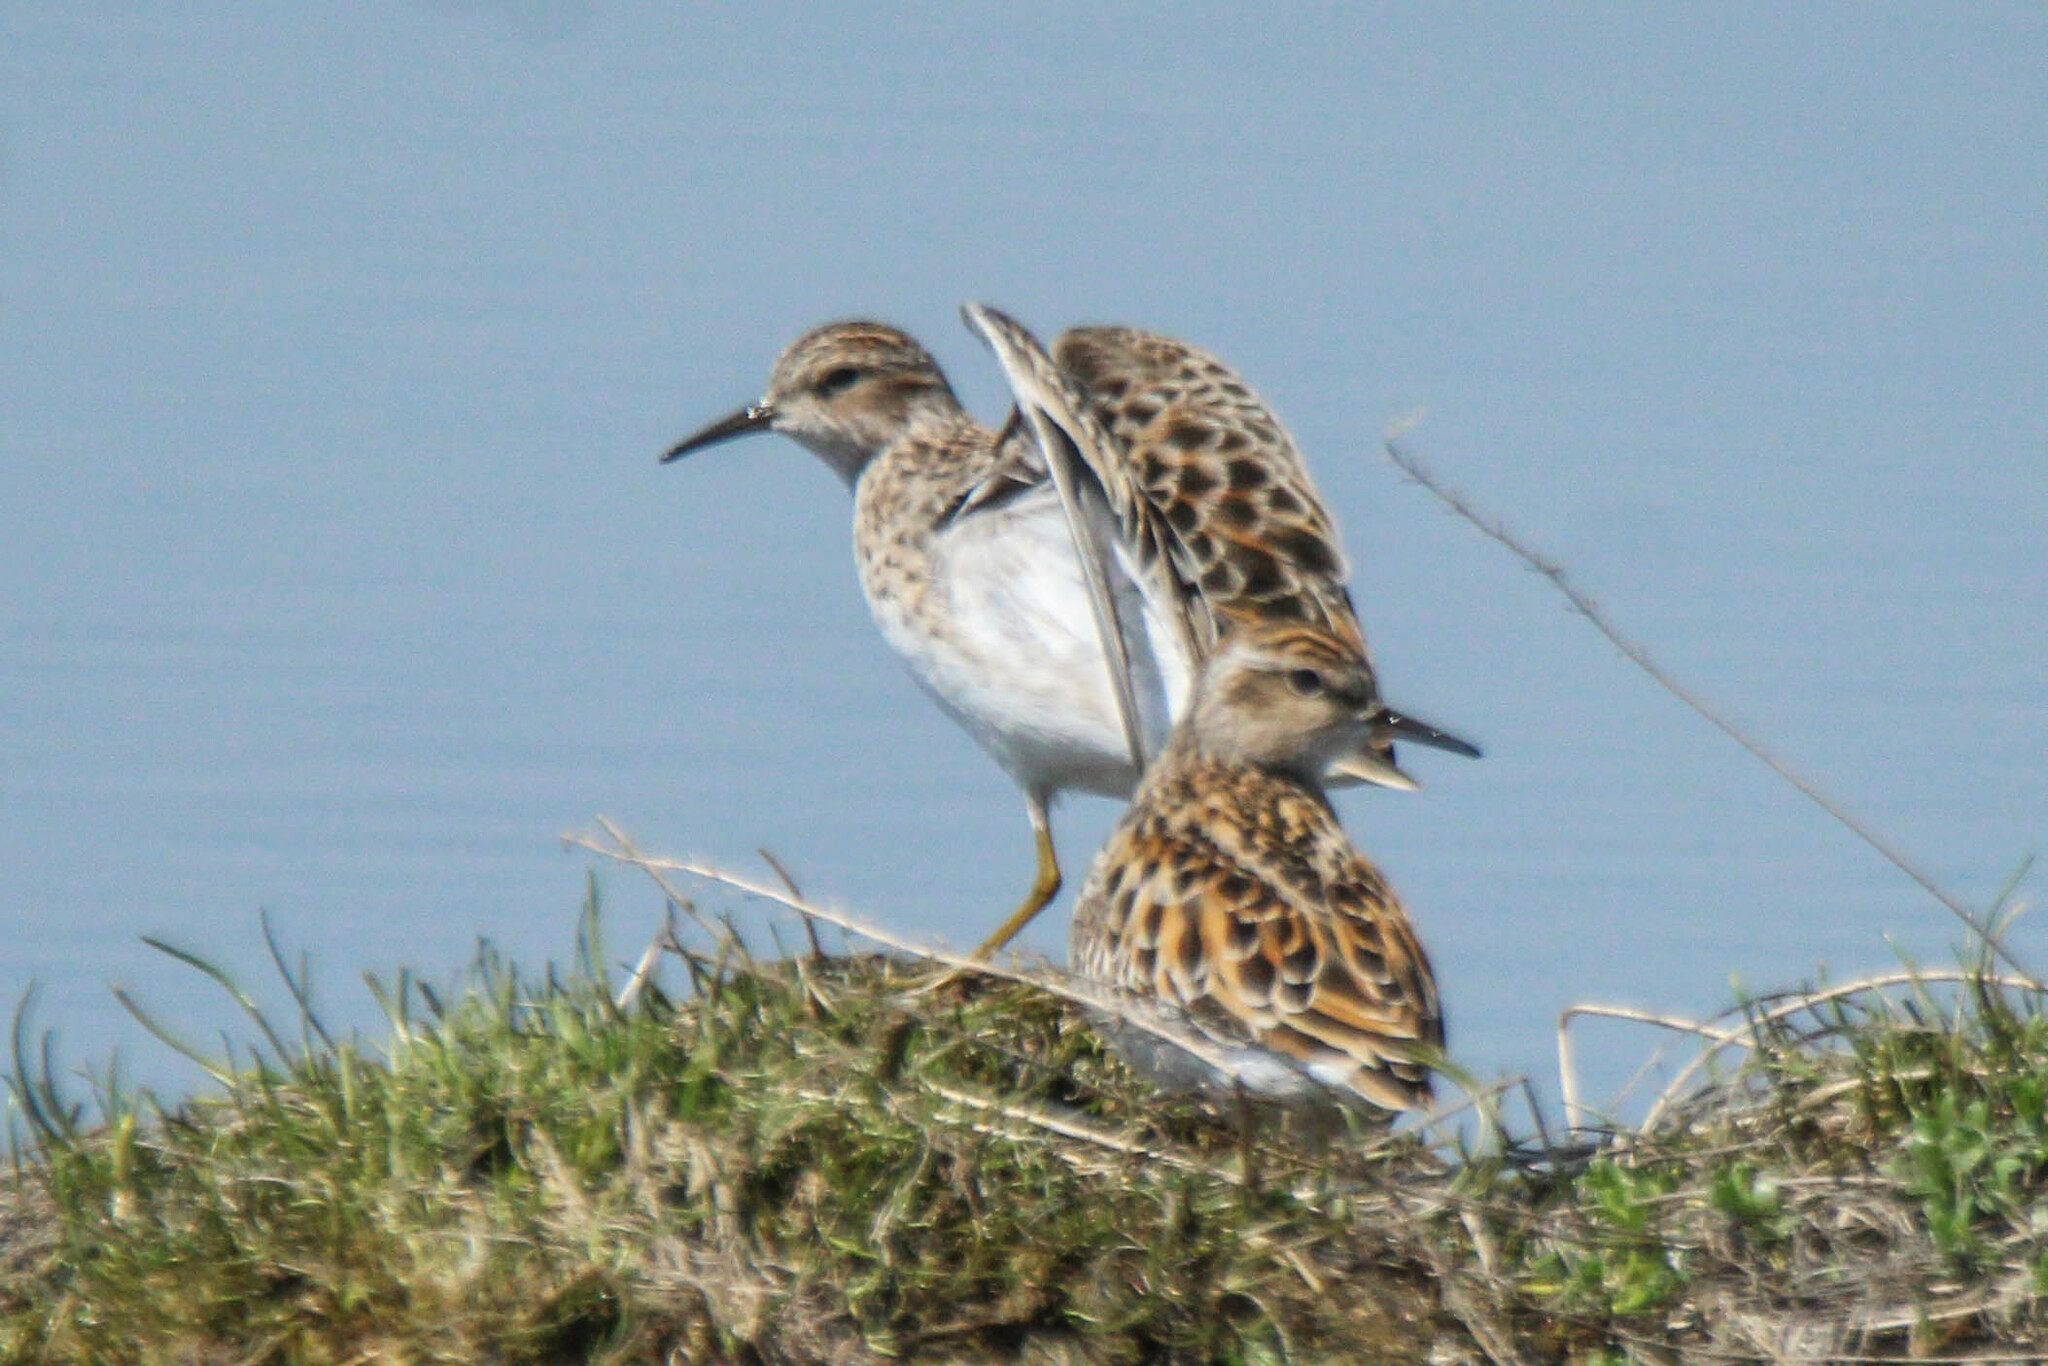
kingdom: Animalia
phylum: Chordata
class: Aves
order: Charadriiformes
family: Scolopacidae
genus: Calidris
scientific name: Calidris subminuta
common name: Long-toed stint
